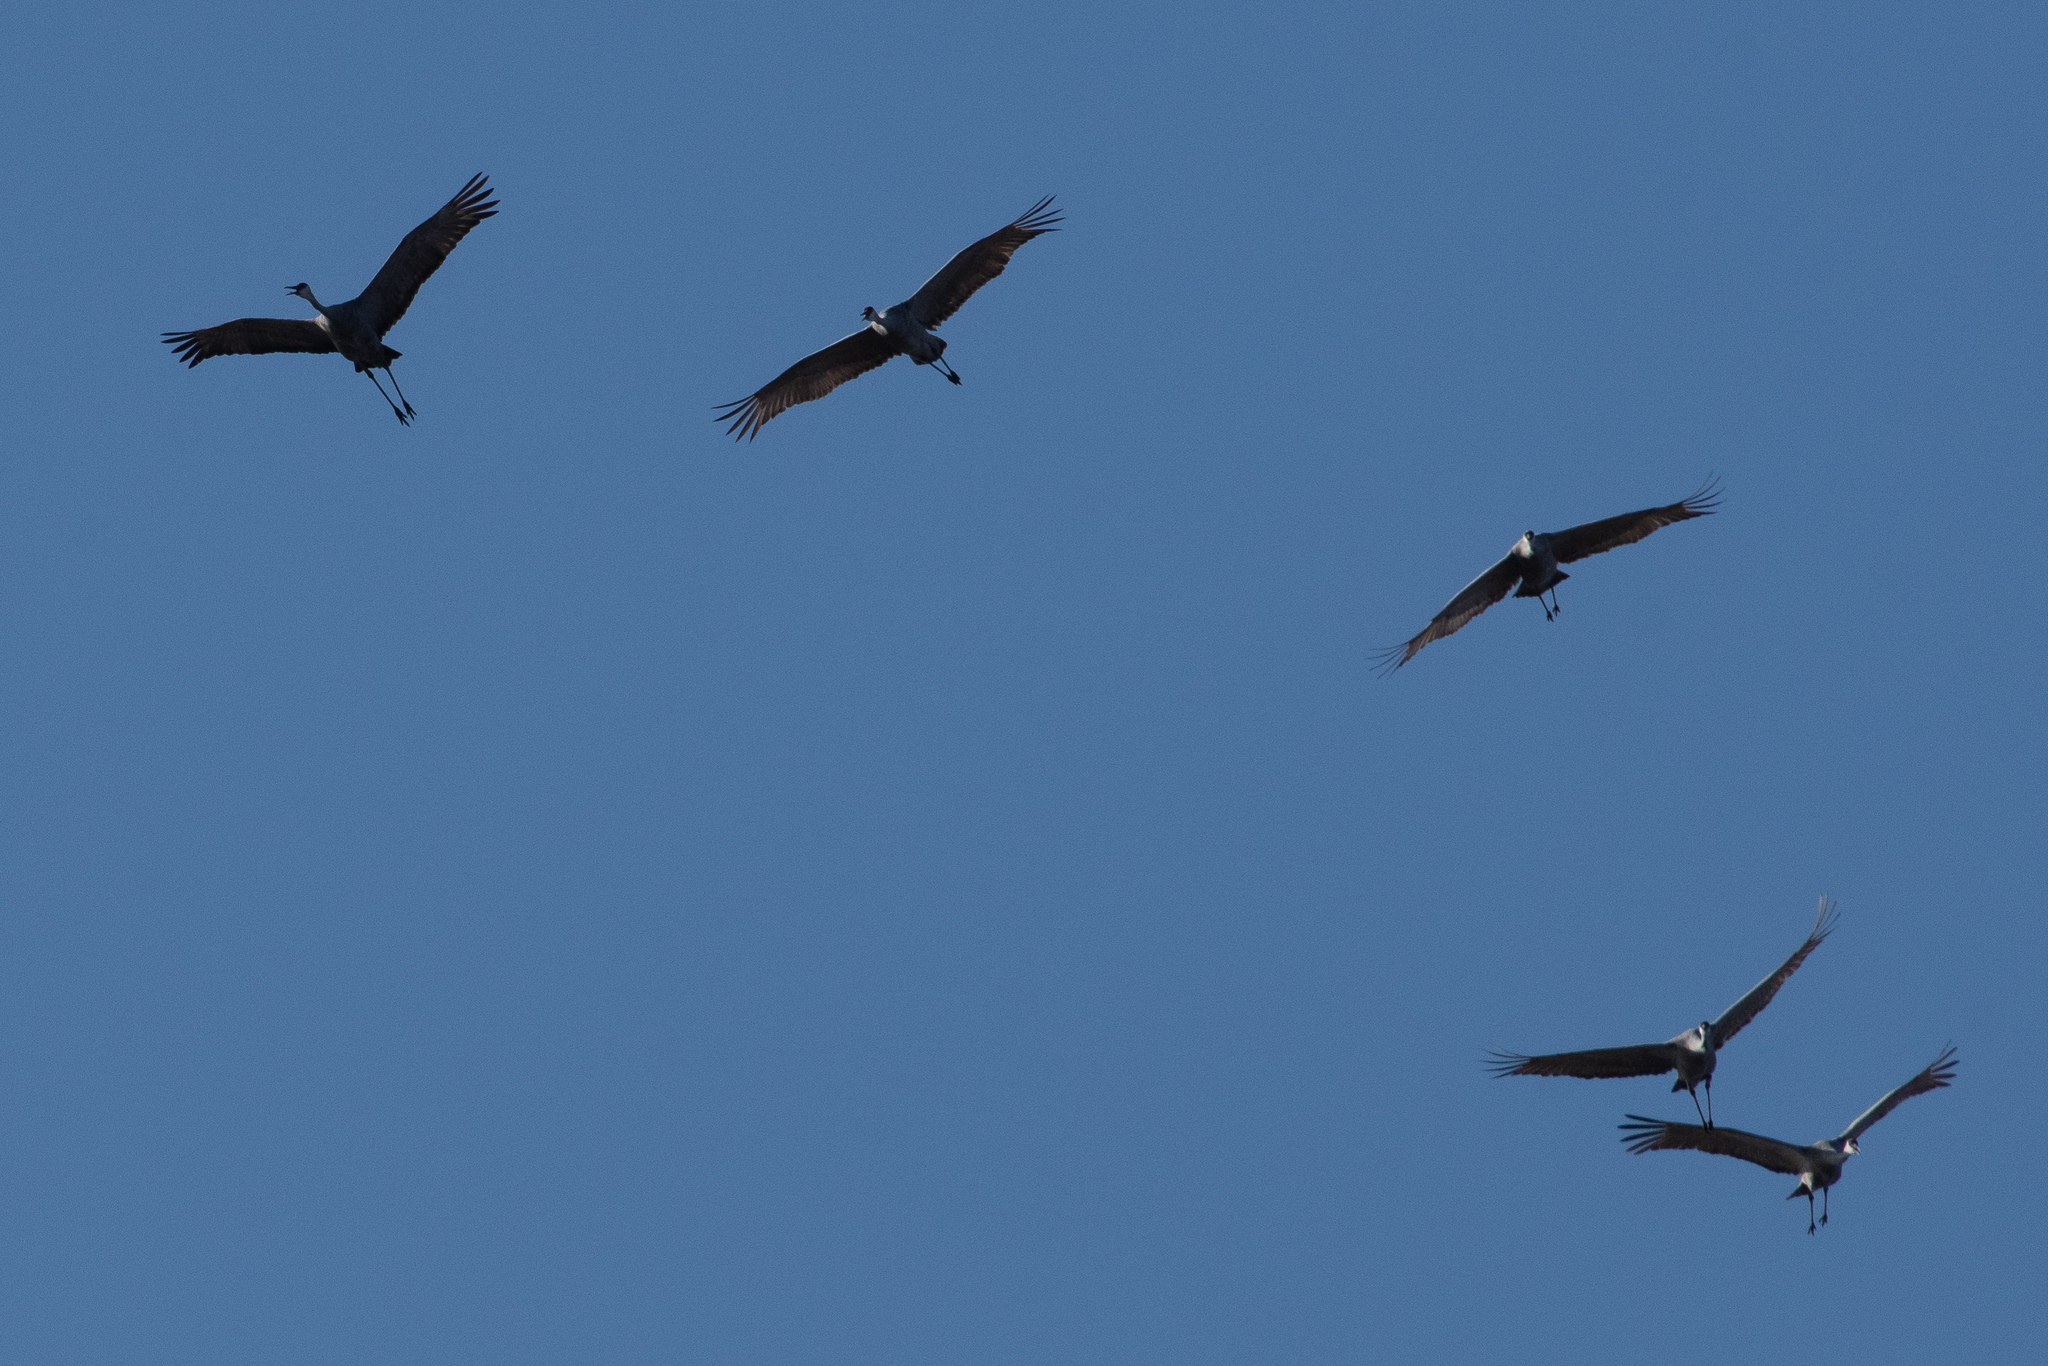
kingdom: Animalia
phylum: Chordata
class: Aves
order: Gruiformes
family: Gruidae
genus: Grus
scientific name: Grus canadensis
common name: Sandhill crane
